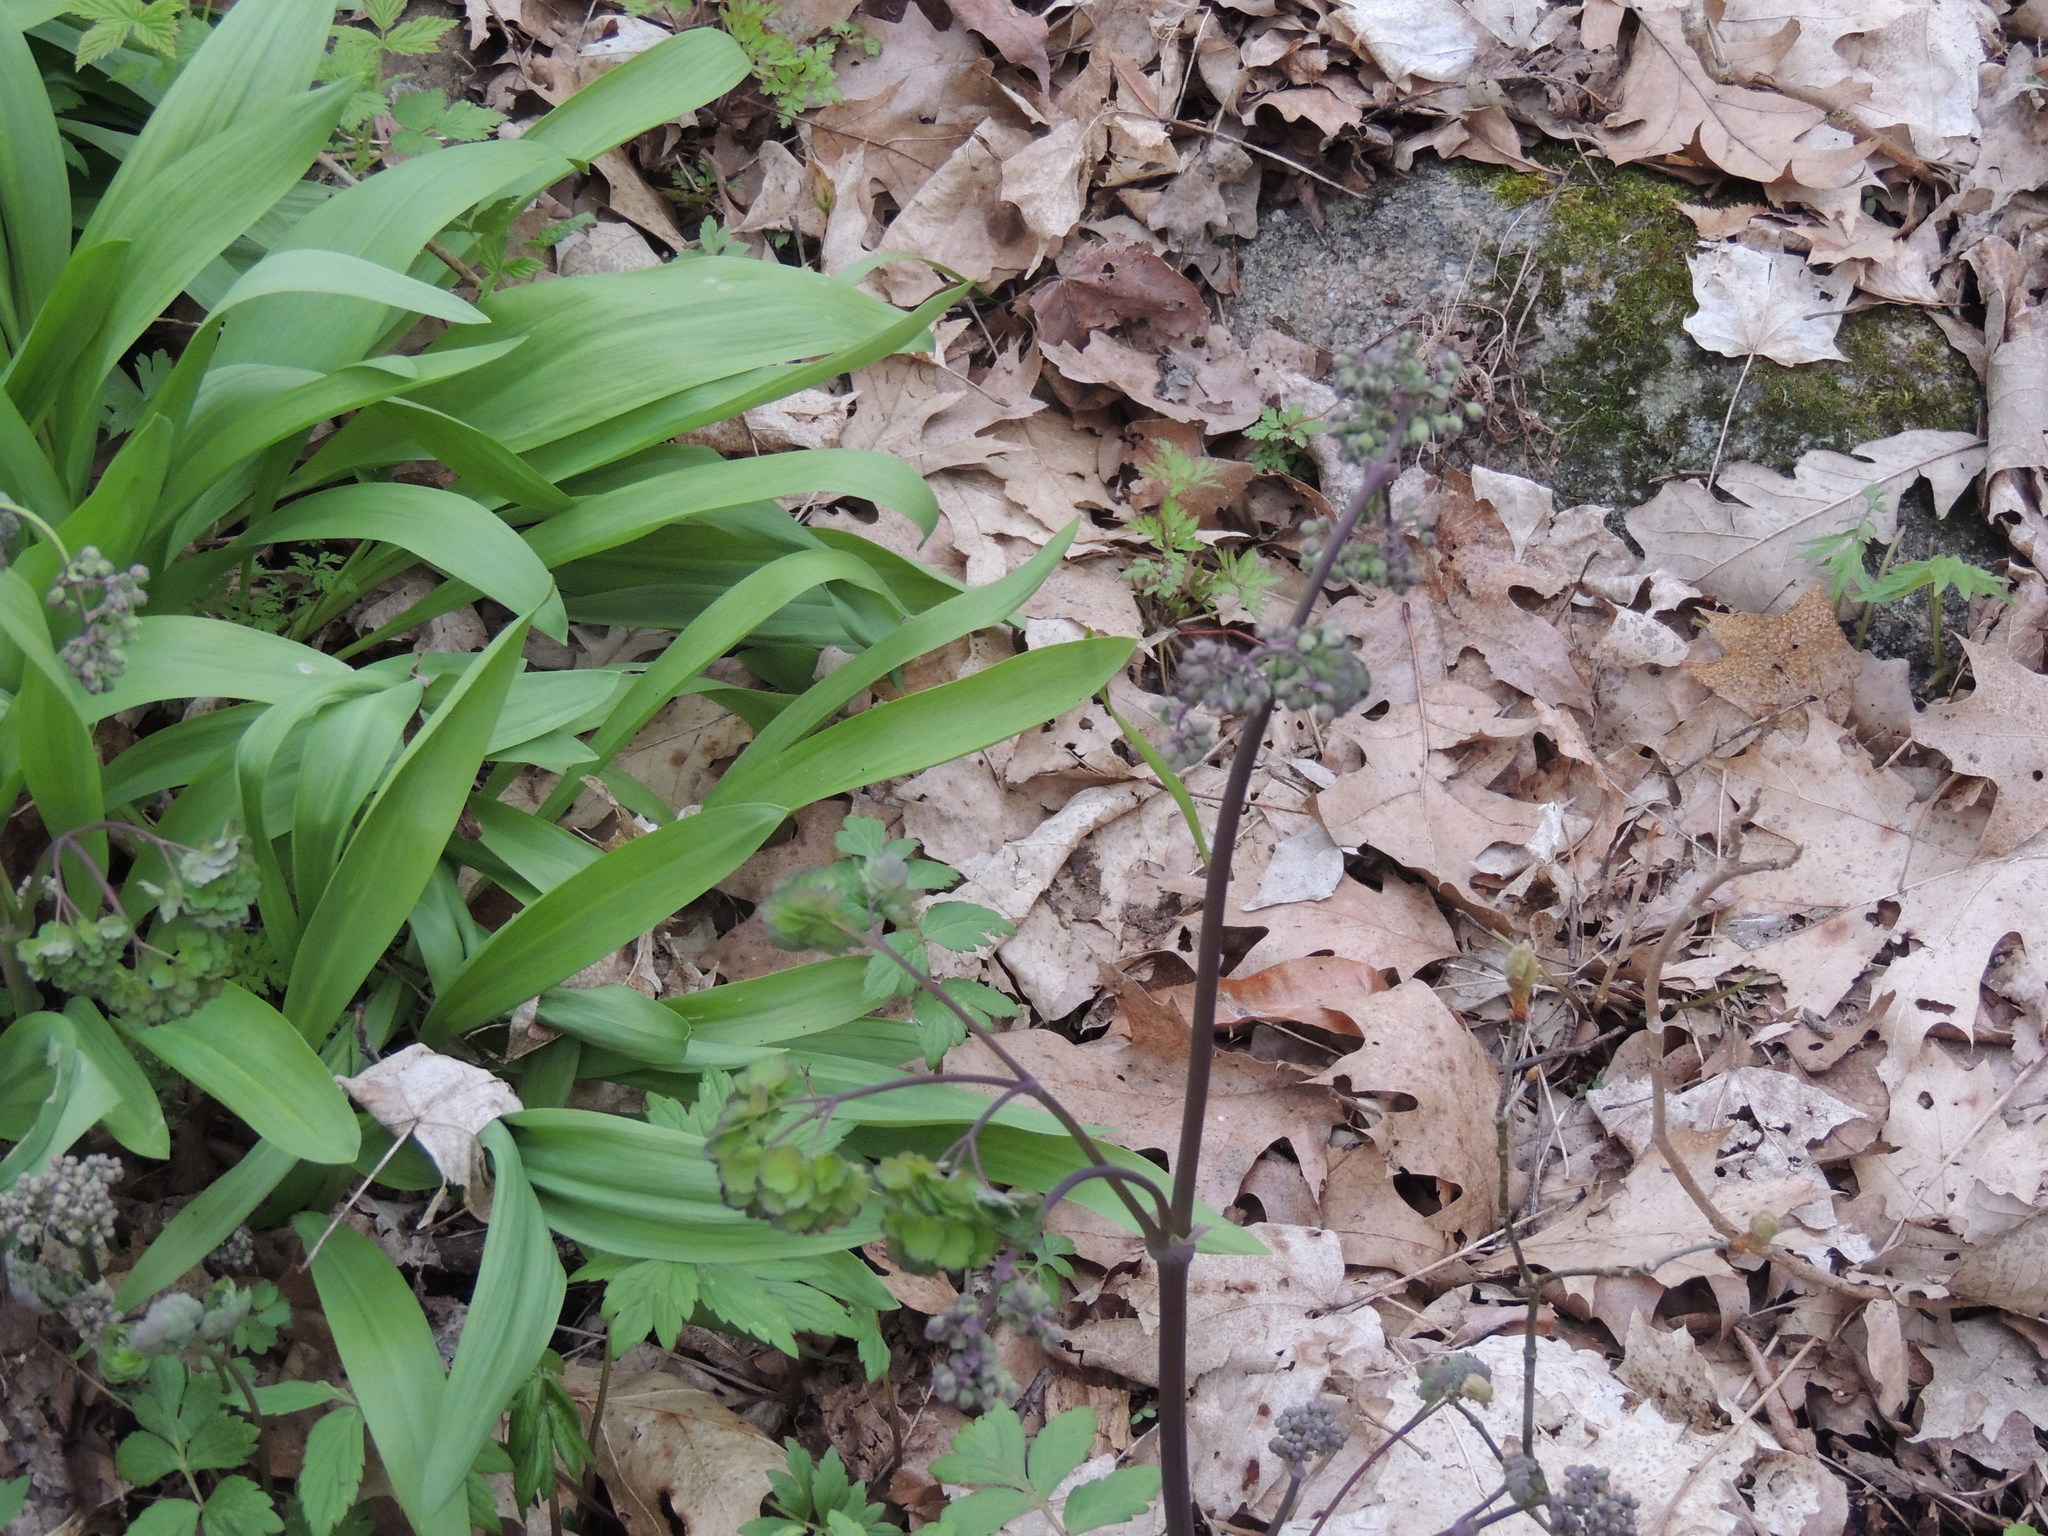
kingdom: Plantae
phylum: Tracheophyta
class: Magnoliopsida
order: Ranunculales
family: Ranunculaceae
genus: Thalictrum
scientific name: Thalictrum dioicum
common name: Early meadow-rue
